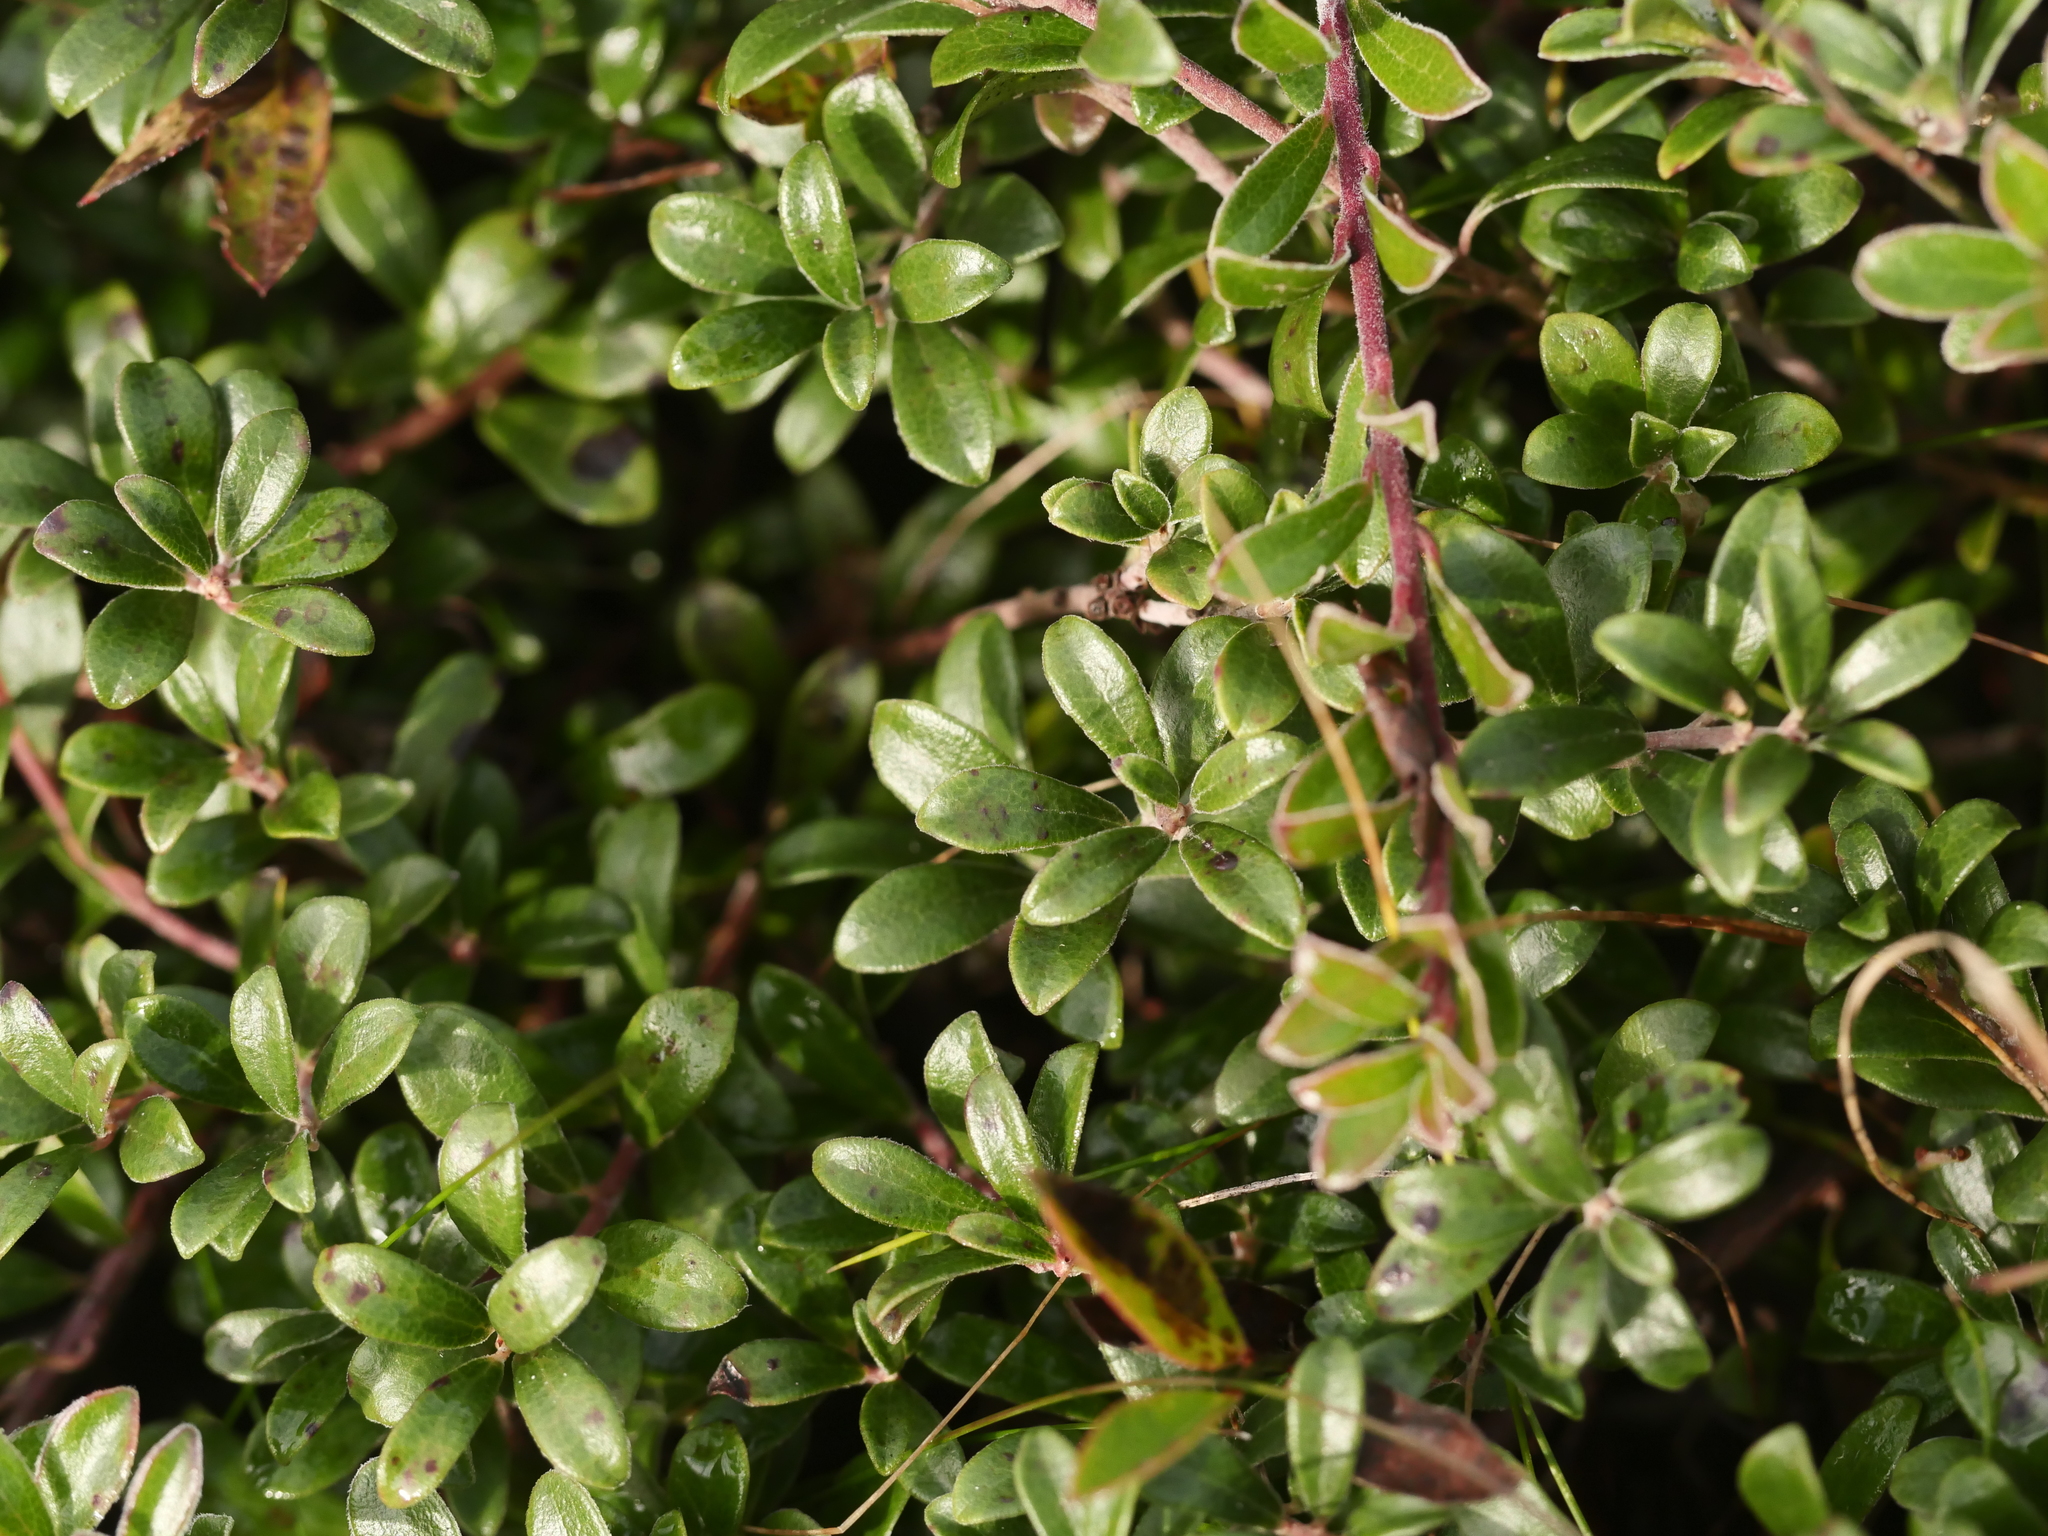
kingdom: Plantae
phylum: Tracheophyta
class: Magnoliopsida
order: Ericales
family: Ericaceae
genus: Arctostaphylos
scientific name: Arctostaphylos uva-ursi
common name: Bearberry
